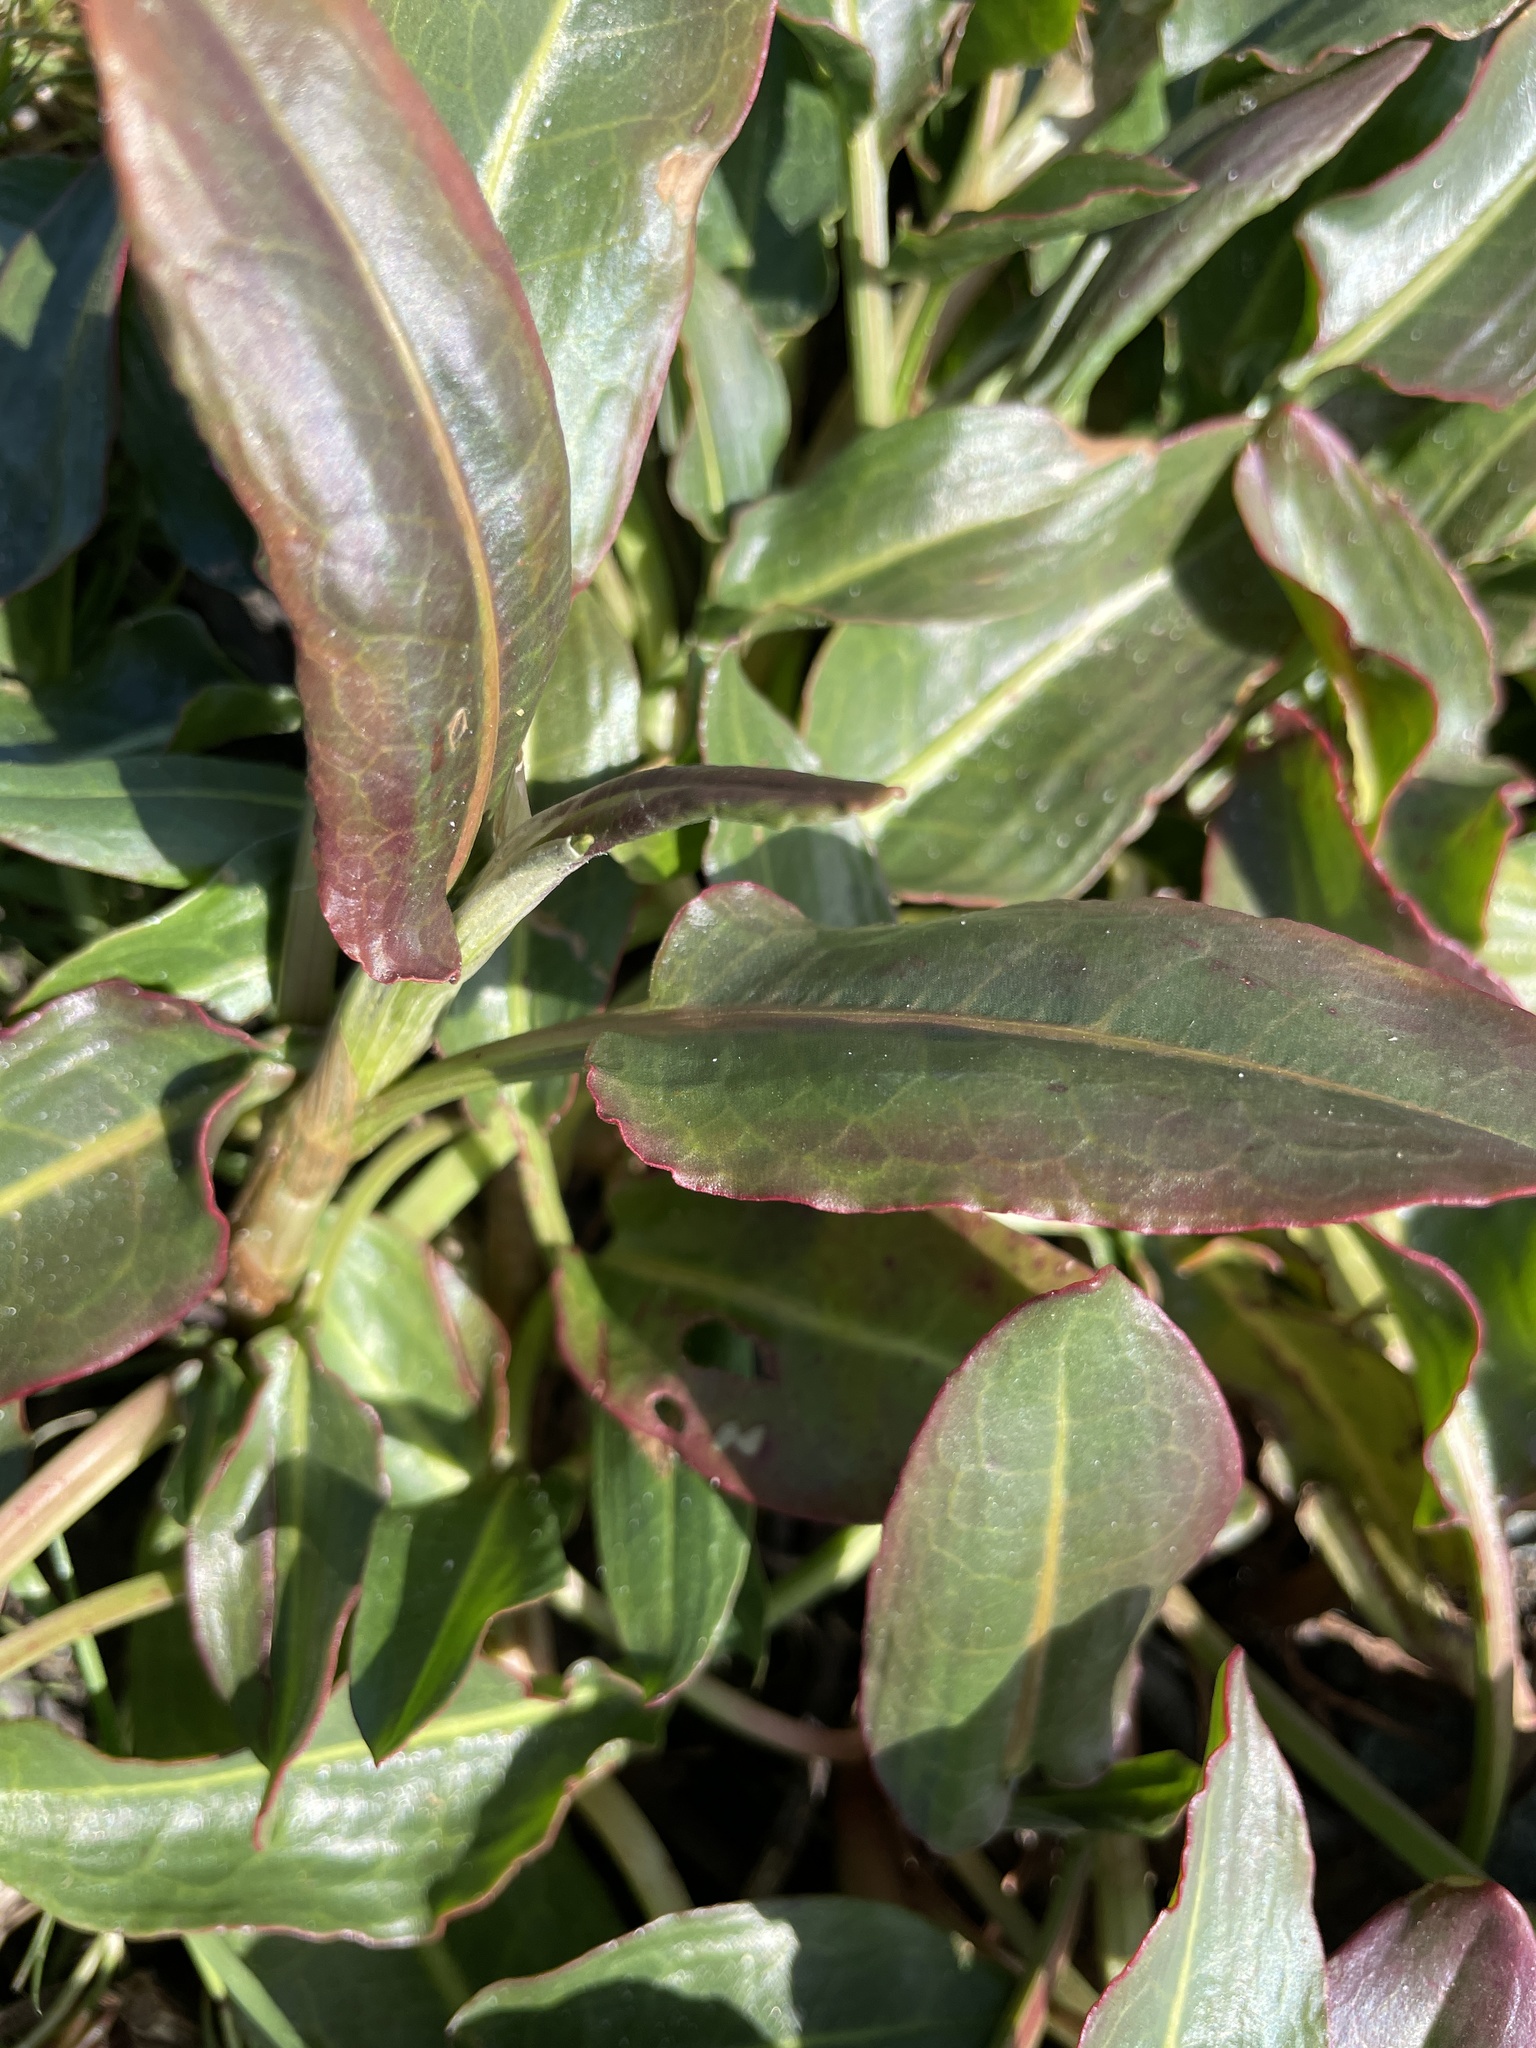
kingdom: Plantae
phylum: Tracheophyta
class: Magnoliopsida
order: Caryophyllales
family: Polygonaceae
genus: Rumex
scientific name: Rumex salicifolius
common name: Willow-leaved dock
